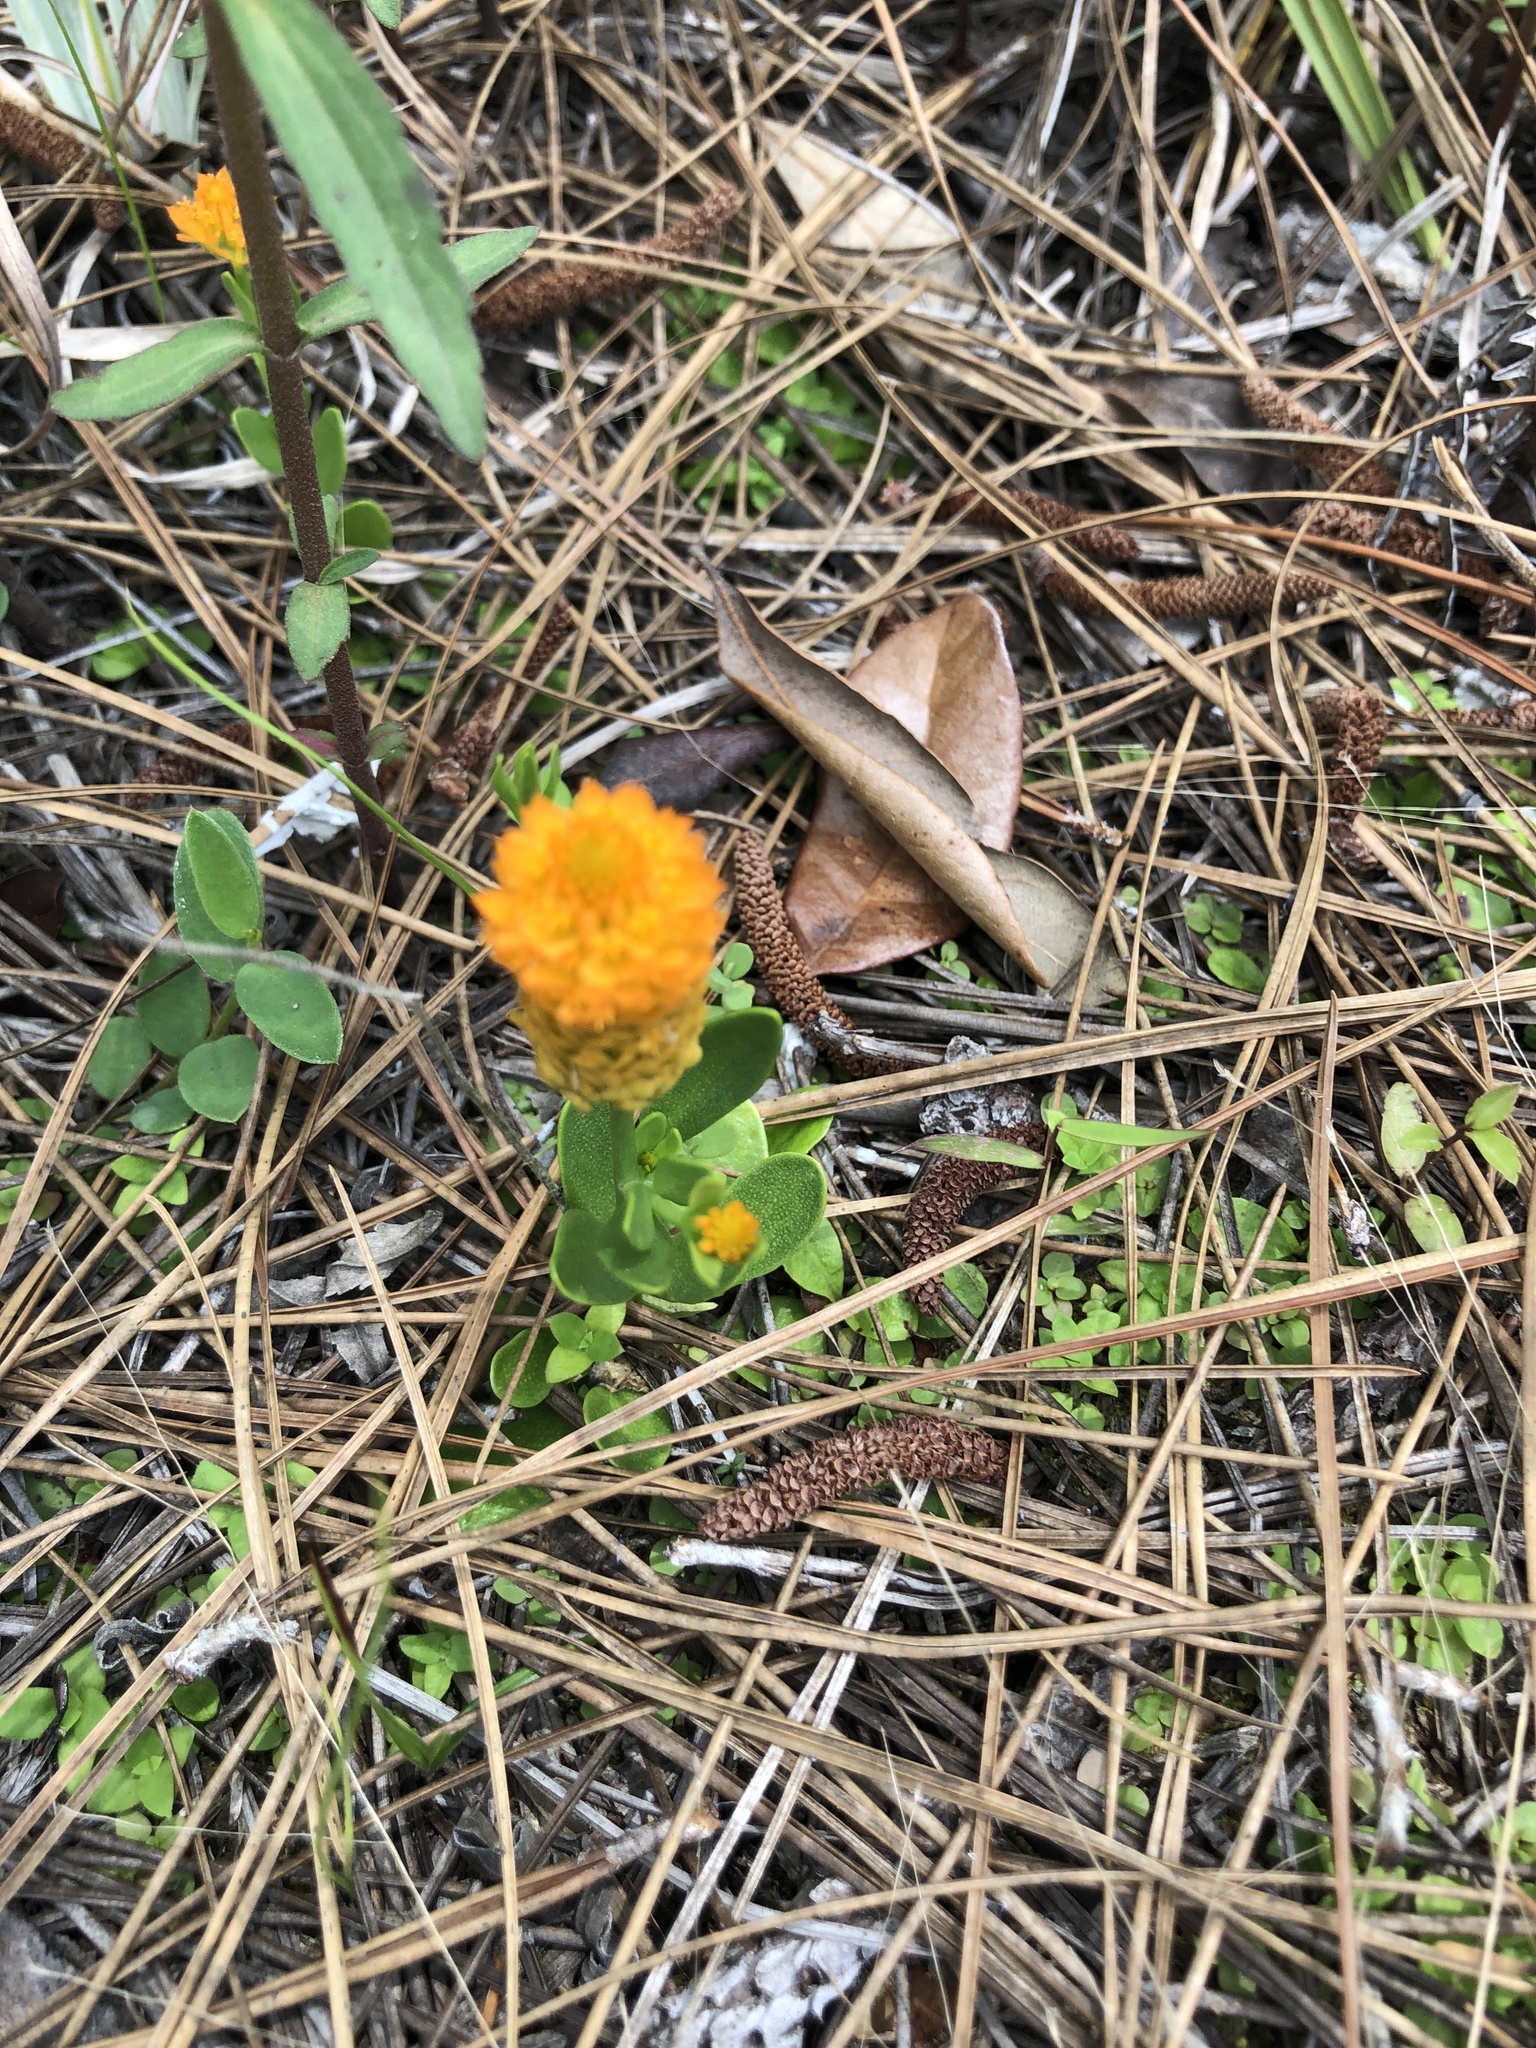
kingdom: Plantae
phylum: Tracheophyta
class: Magnoliopsida
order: Fabales
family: Polygalaceae
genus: Polygala
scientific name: Polygala lutea
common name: Orange milkwort
